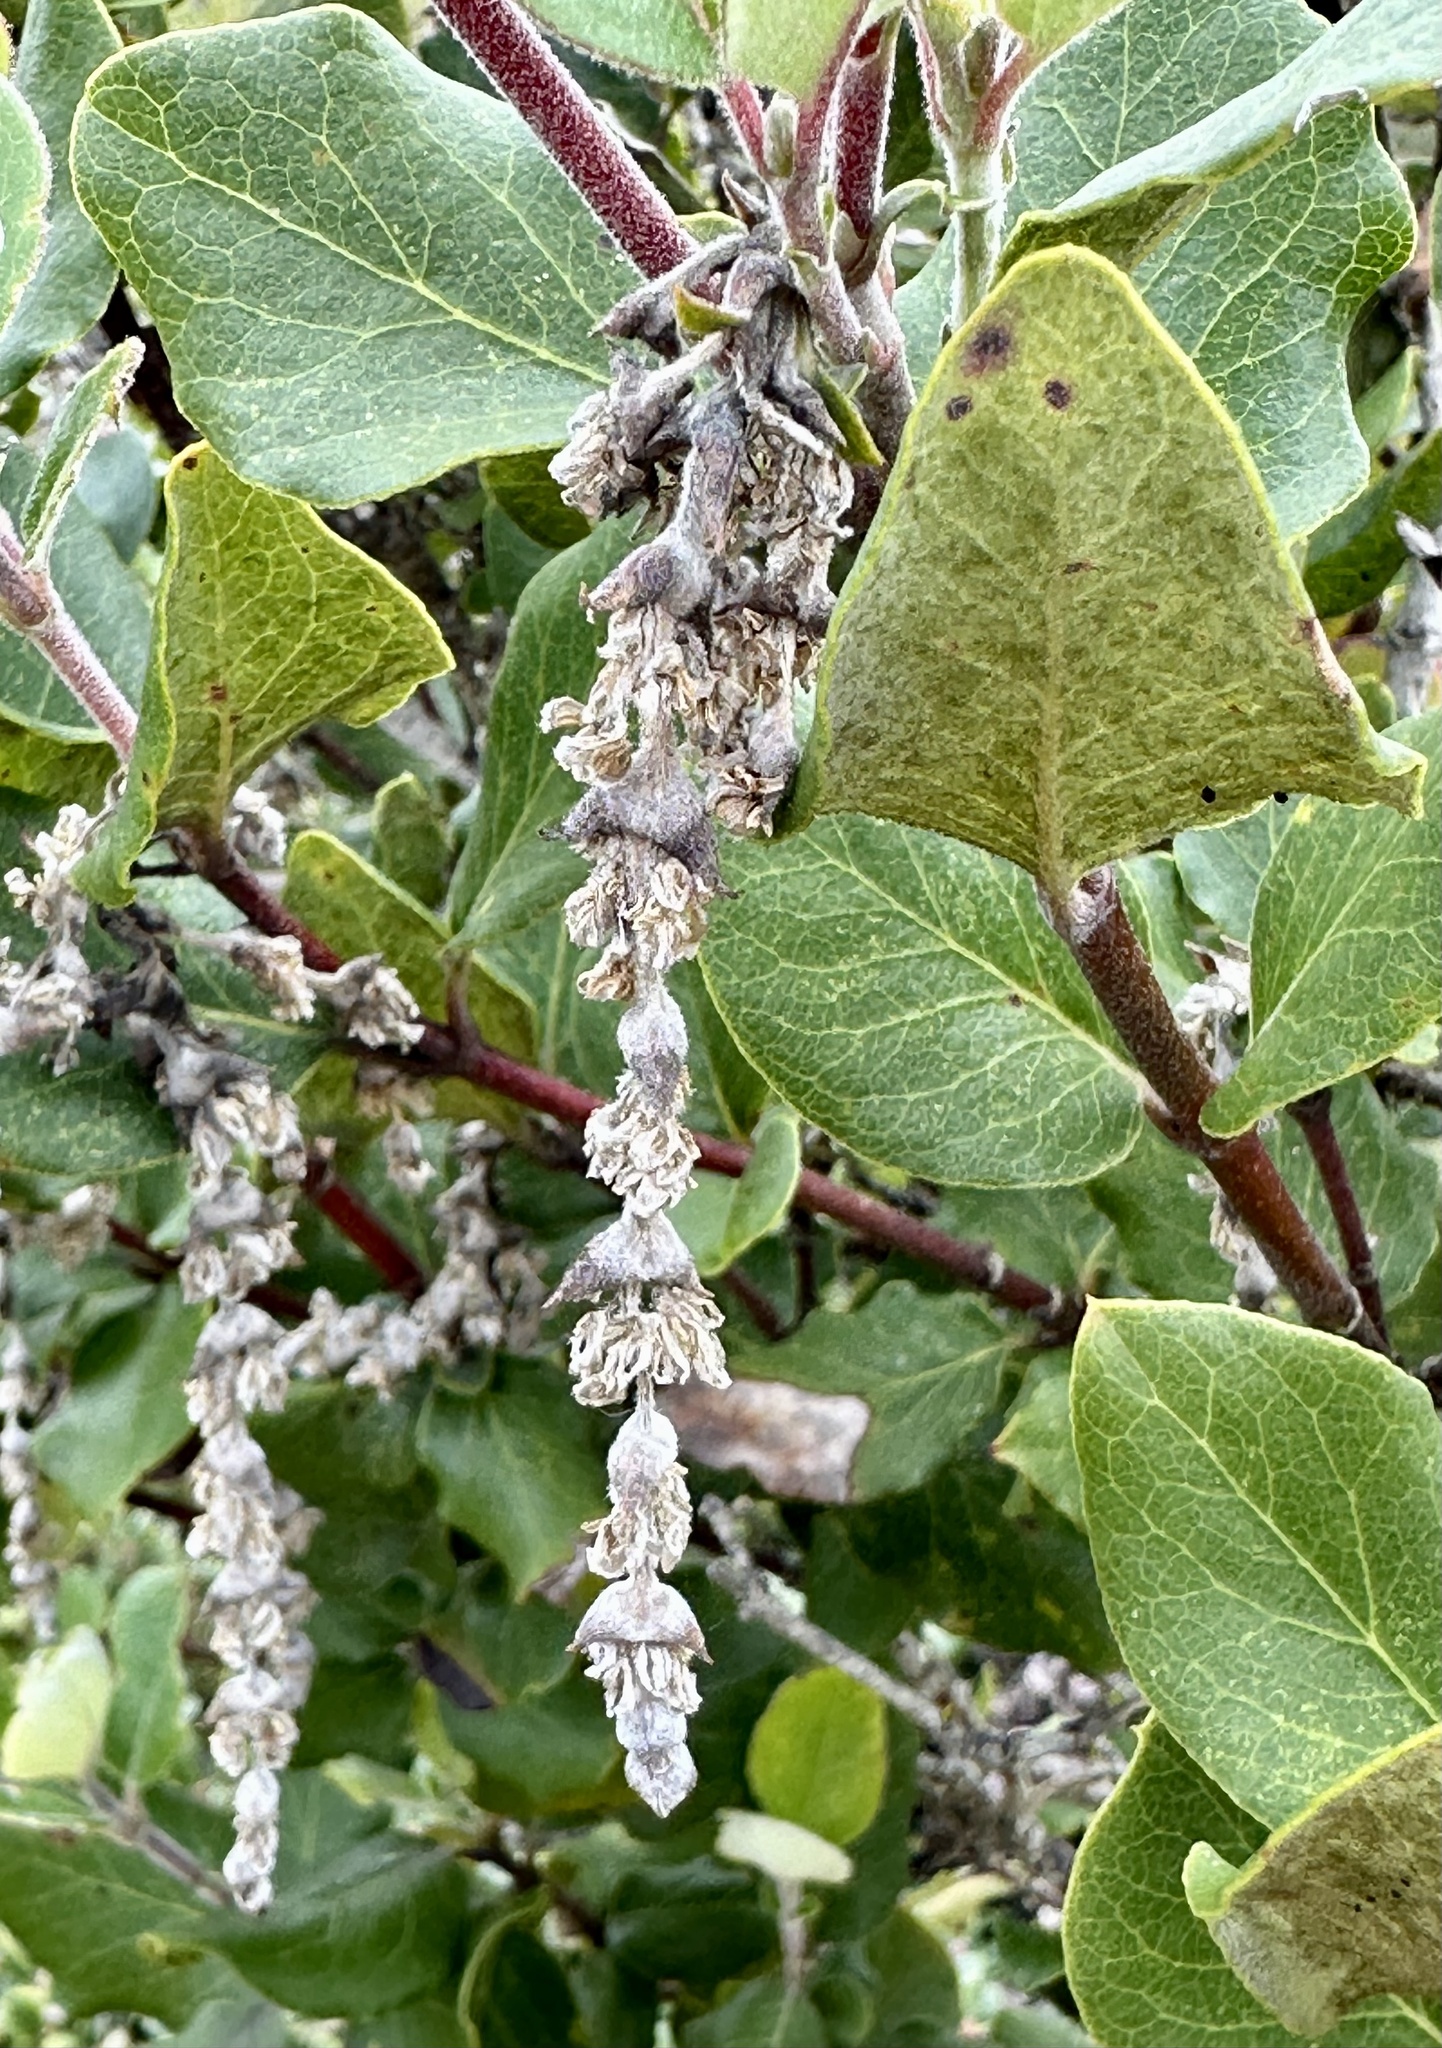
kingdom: Plantae
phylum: Tracheophyta
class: Magnoliopsida
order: Garryales
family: Garryaceae
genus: Garrya
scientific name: Garrya elliptica
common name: Silk-tassel
